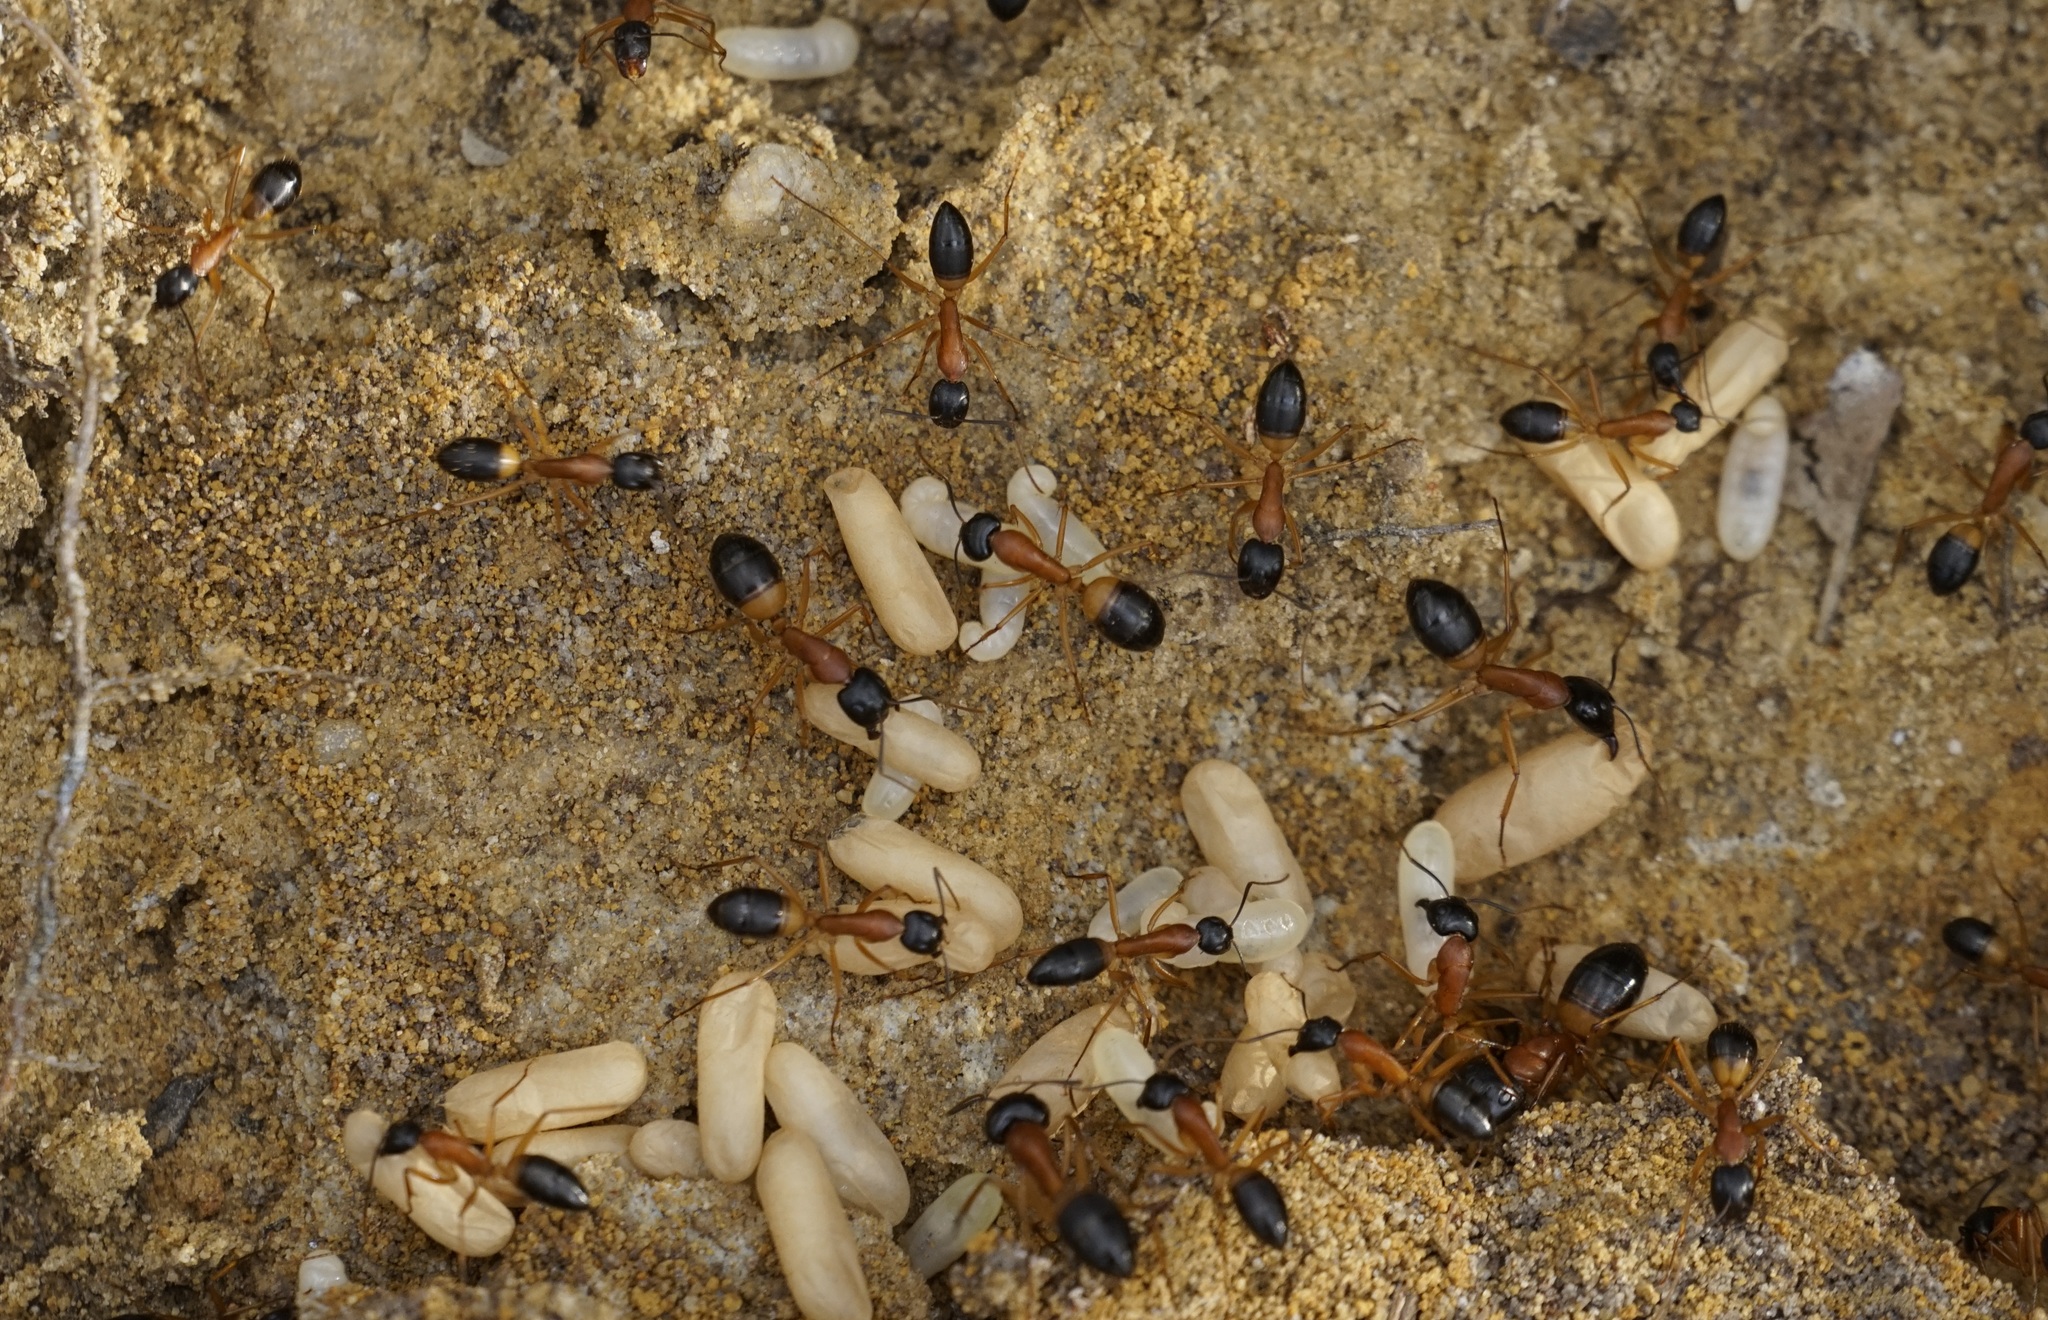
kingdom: Animalia
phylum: Arthropoda
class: Insecta
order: Hymenoptera
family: Formicidae
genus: Camponotus
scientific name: Camponotus consobrinus
